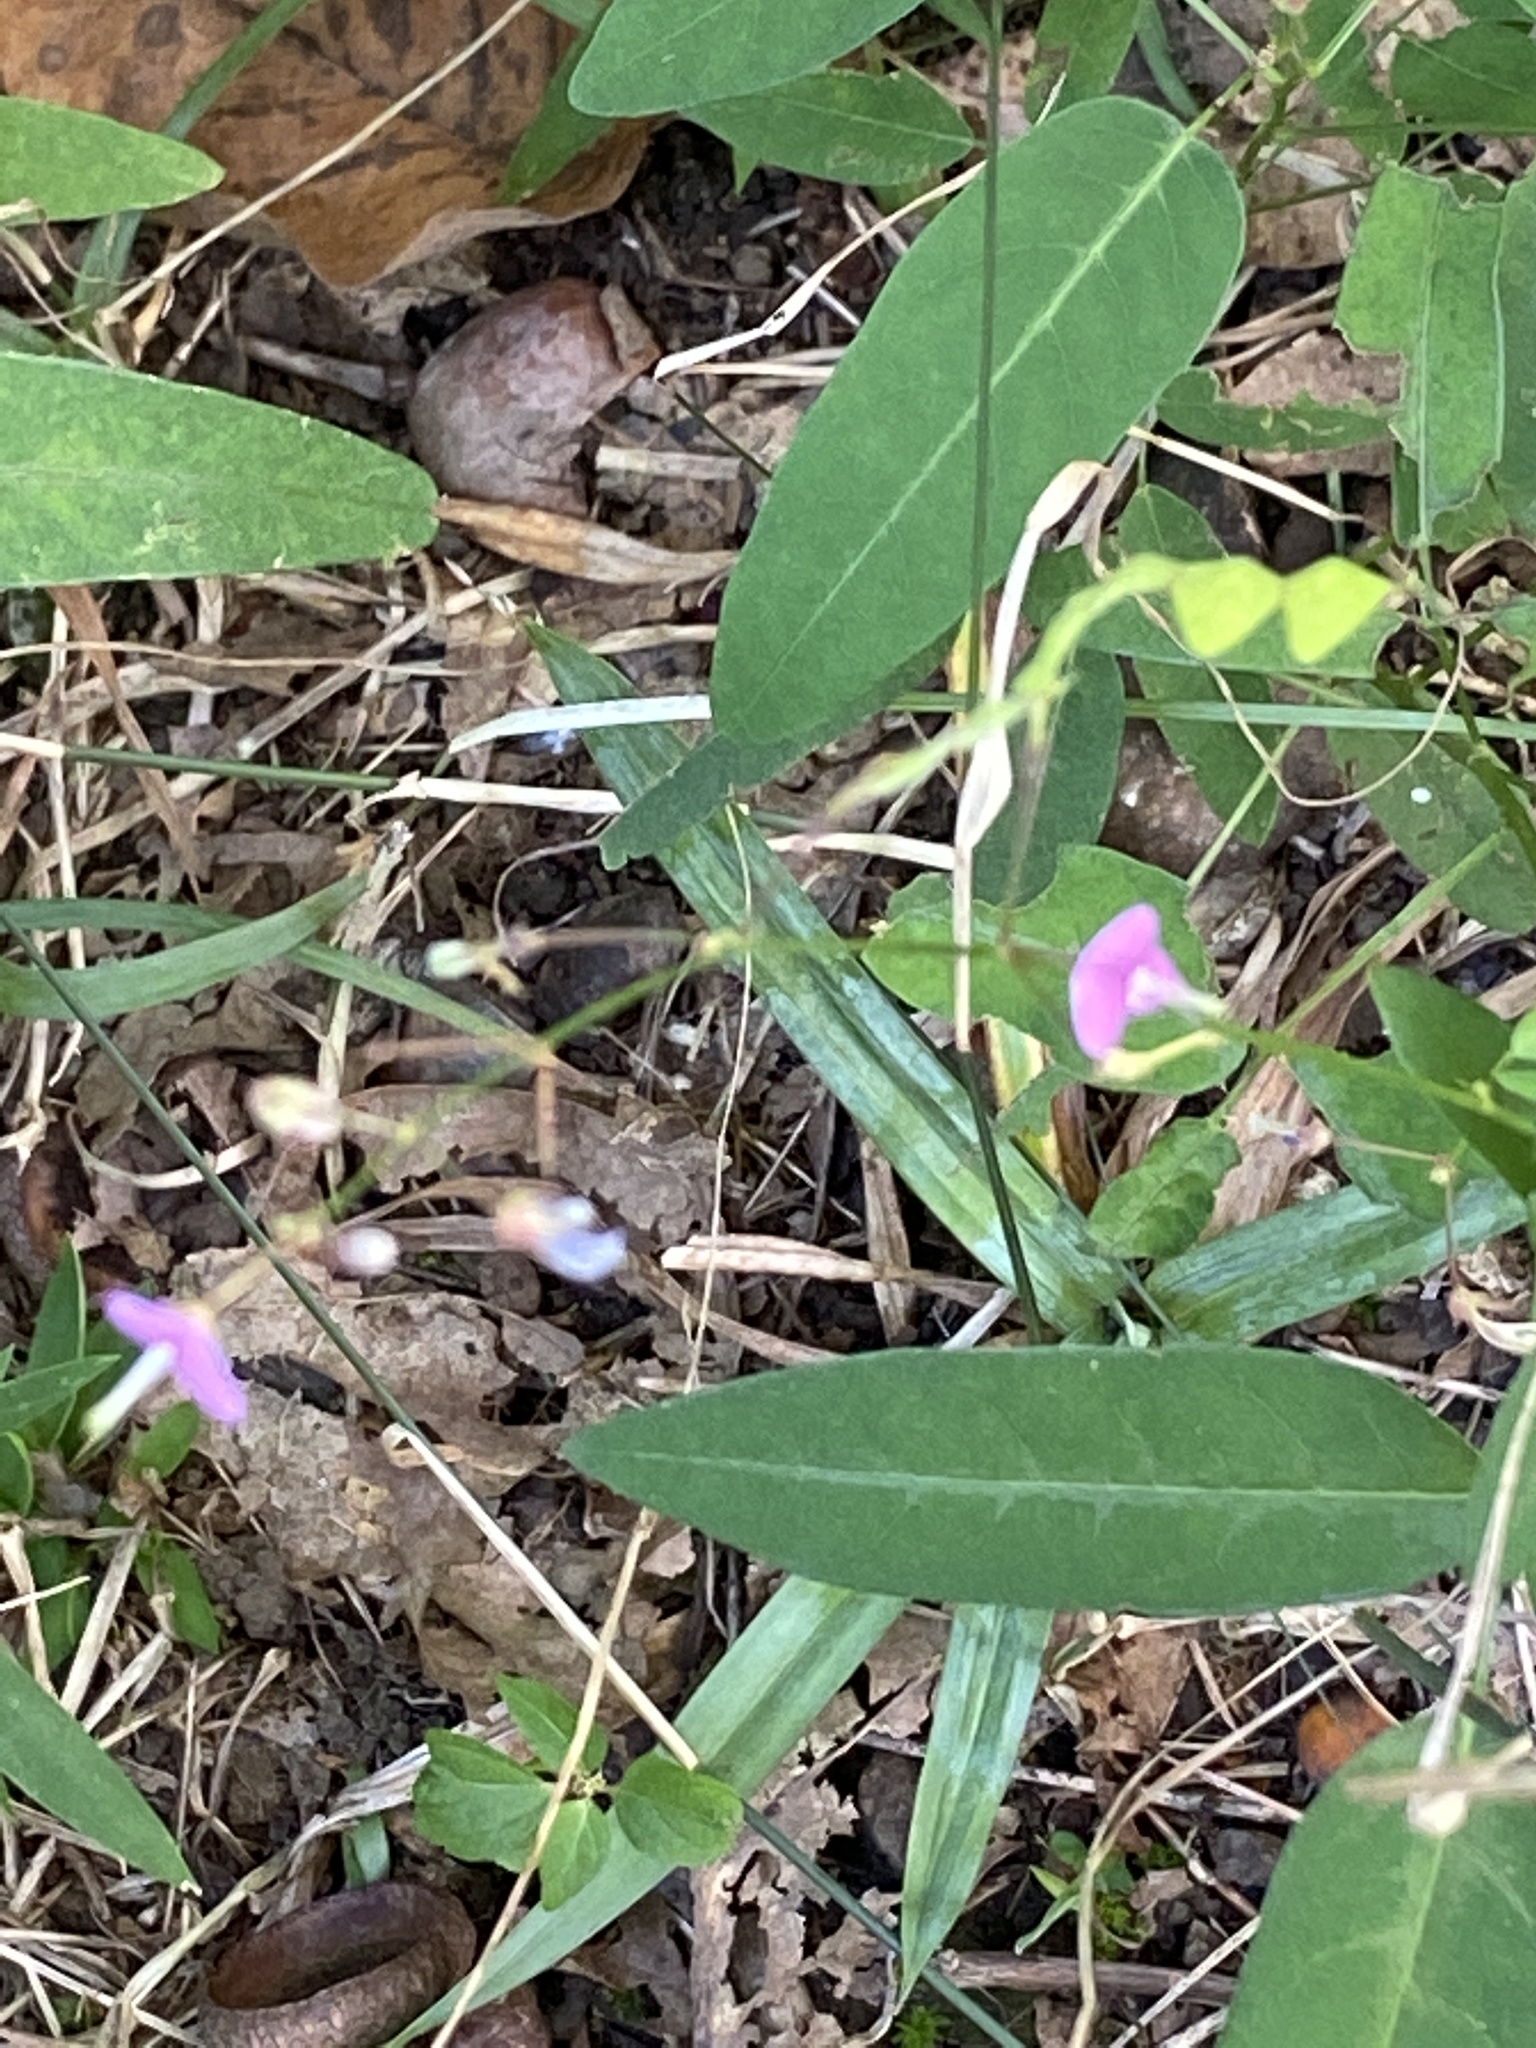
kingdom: Plantae
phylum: Tracheophyta
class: Magnoliopsida
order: Fabales
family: Fabaceae
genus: Desmodium
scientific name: Desmodium paniculatum
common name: Panicled tick-clover
